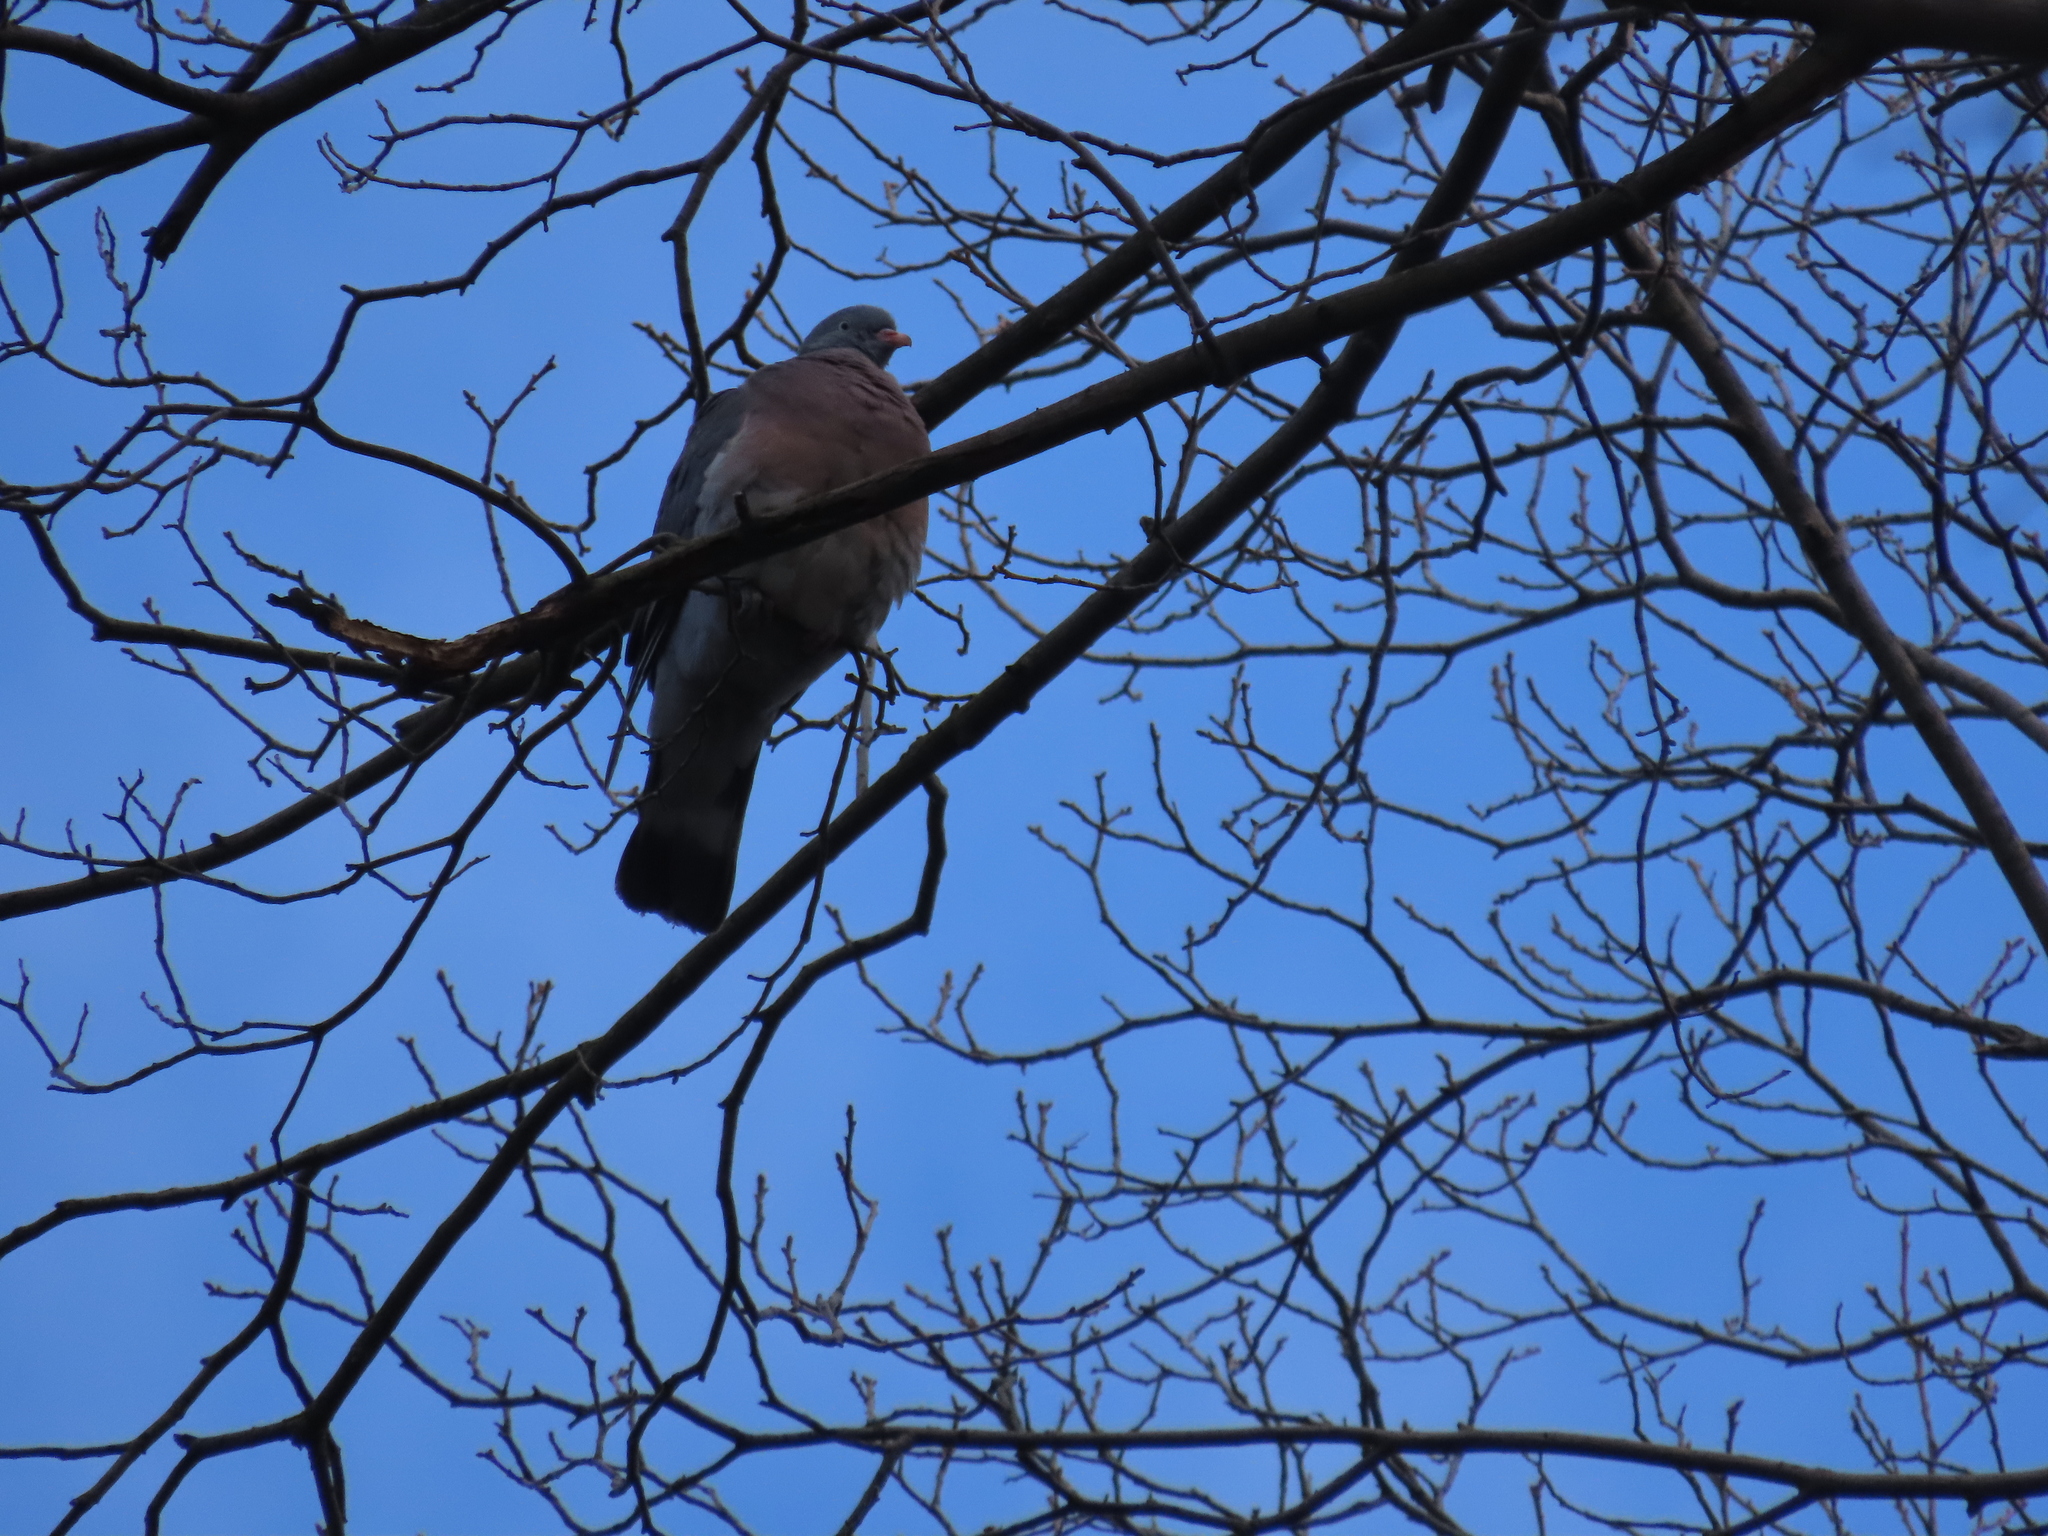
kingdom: Animalia
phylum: Chordata
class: Aves
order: Columbiformes
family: Columbidae
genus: Columba
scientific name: Columba palumbus
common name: Common wood pigeon
